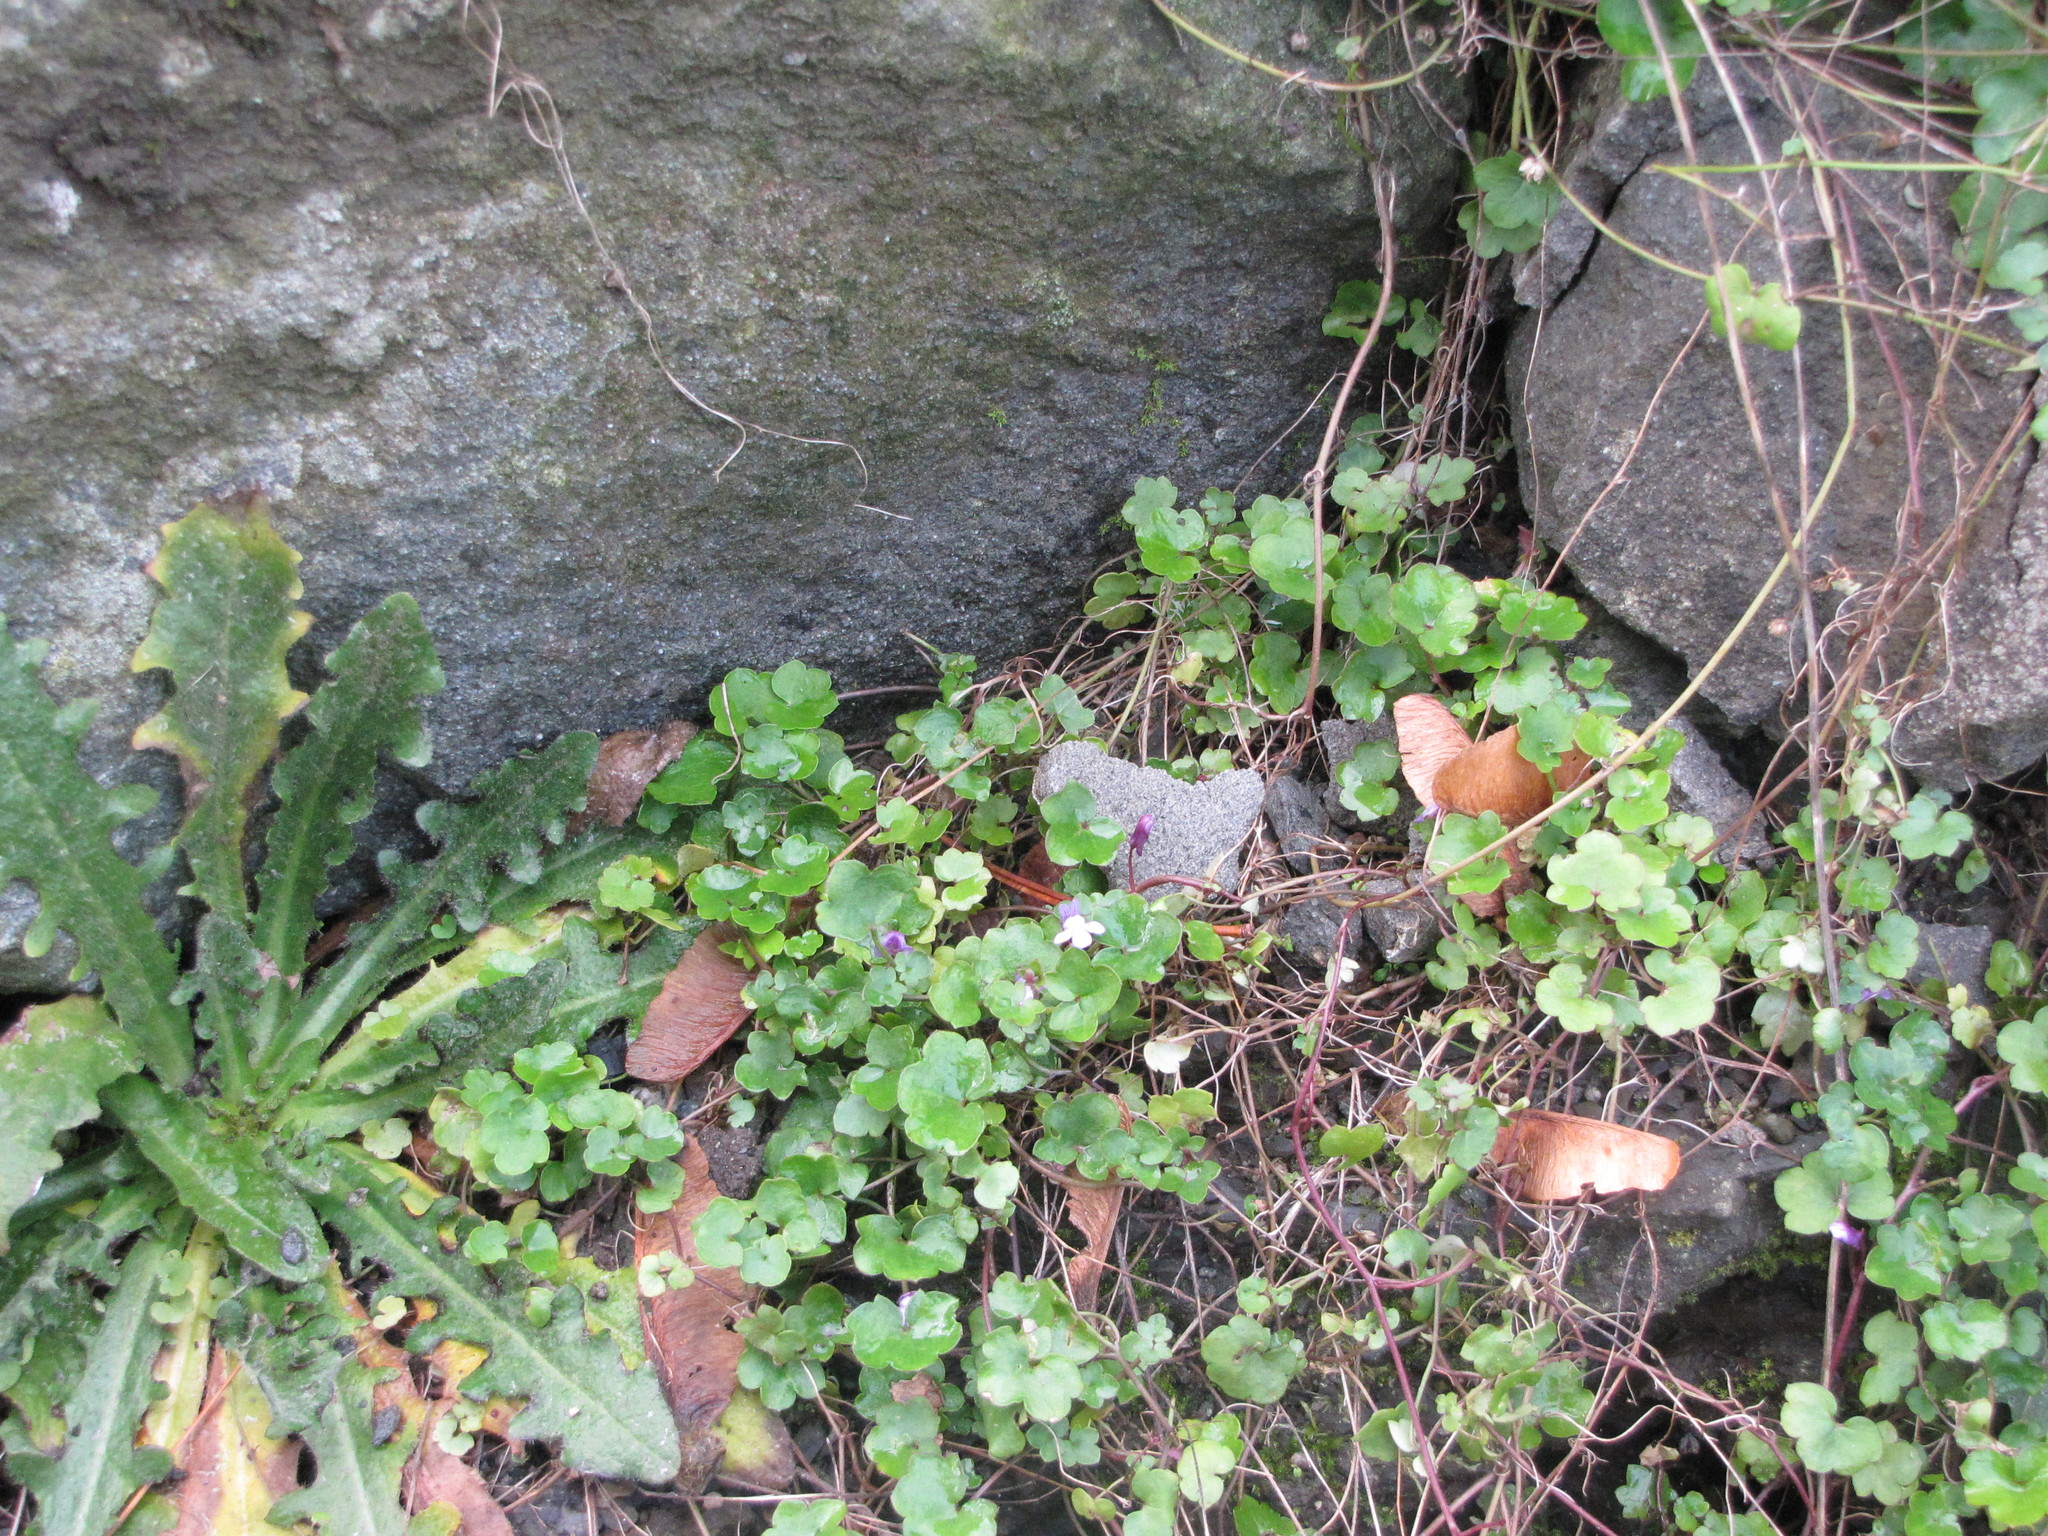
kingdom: Plantae
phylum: Tracheophyta
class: Magnoliopsida
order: Lamiales
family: Plantaginaceae
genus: Cymbalaria
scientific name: Cymbalaria muralis
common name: Ivy-leaved toadflax
